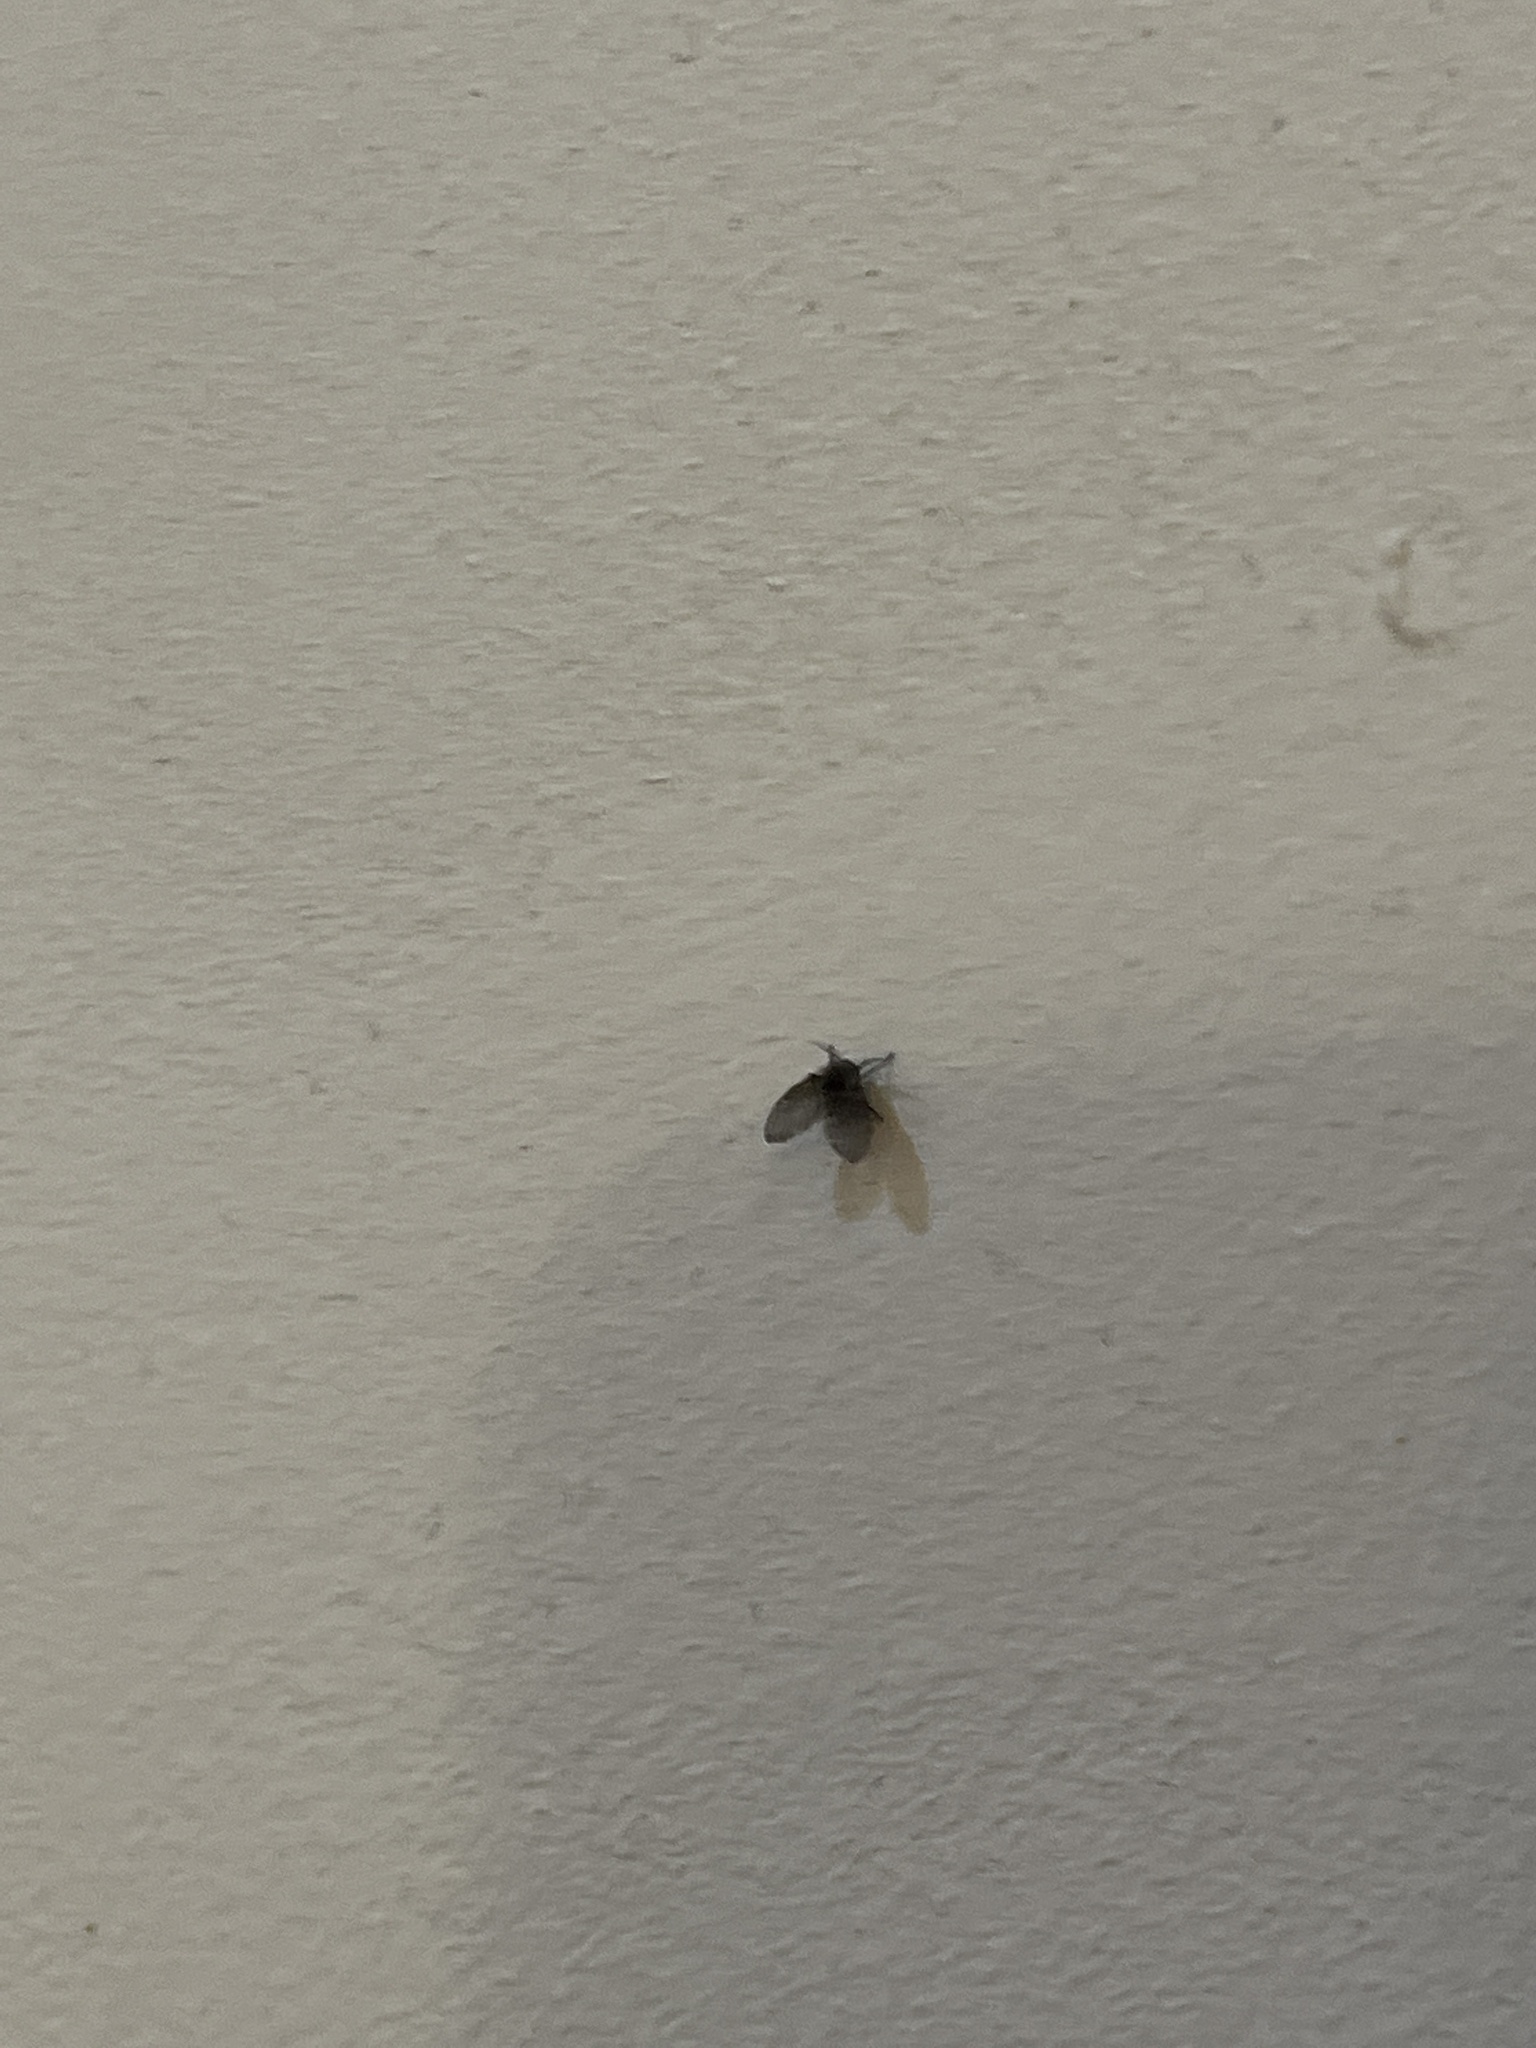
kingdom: Animalia
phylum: Arthropoda
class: Insecta
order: Diptera
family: Psychodidae
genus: Clogmia
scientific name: Clogmia albipunctatus
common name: White-spotted moth fly
